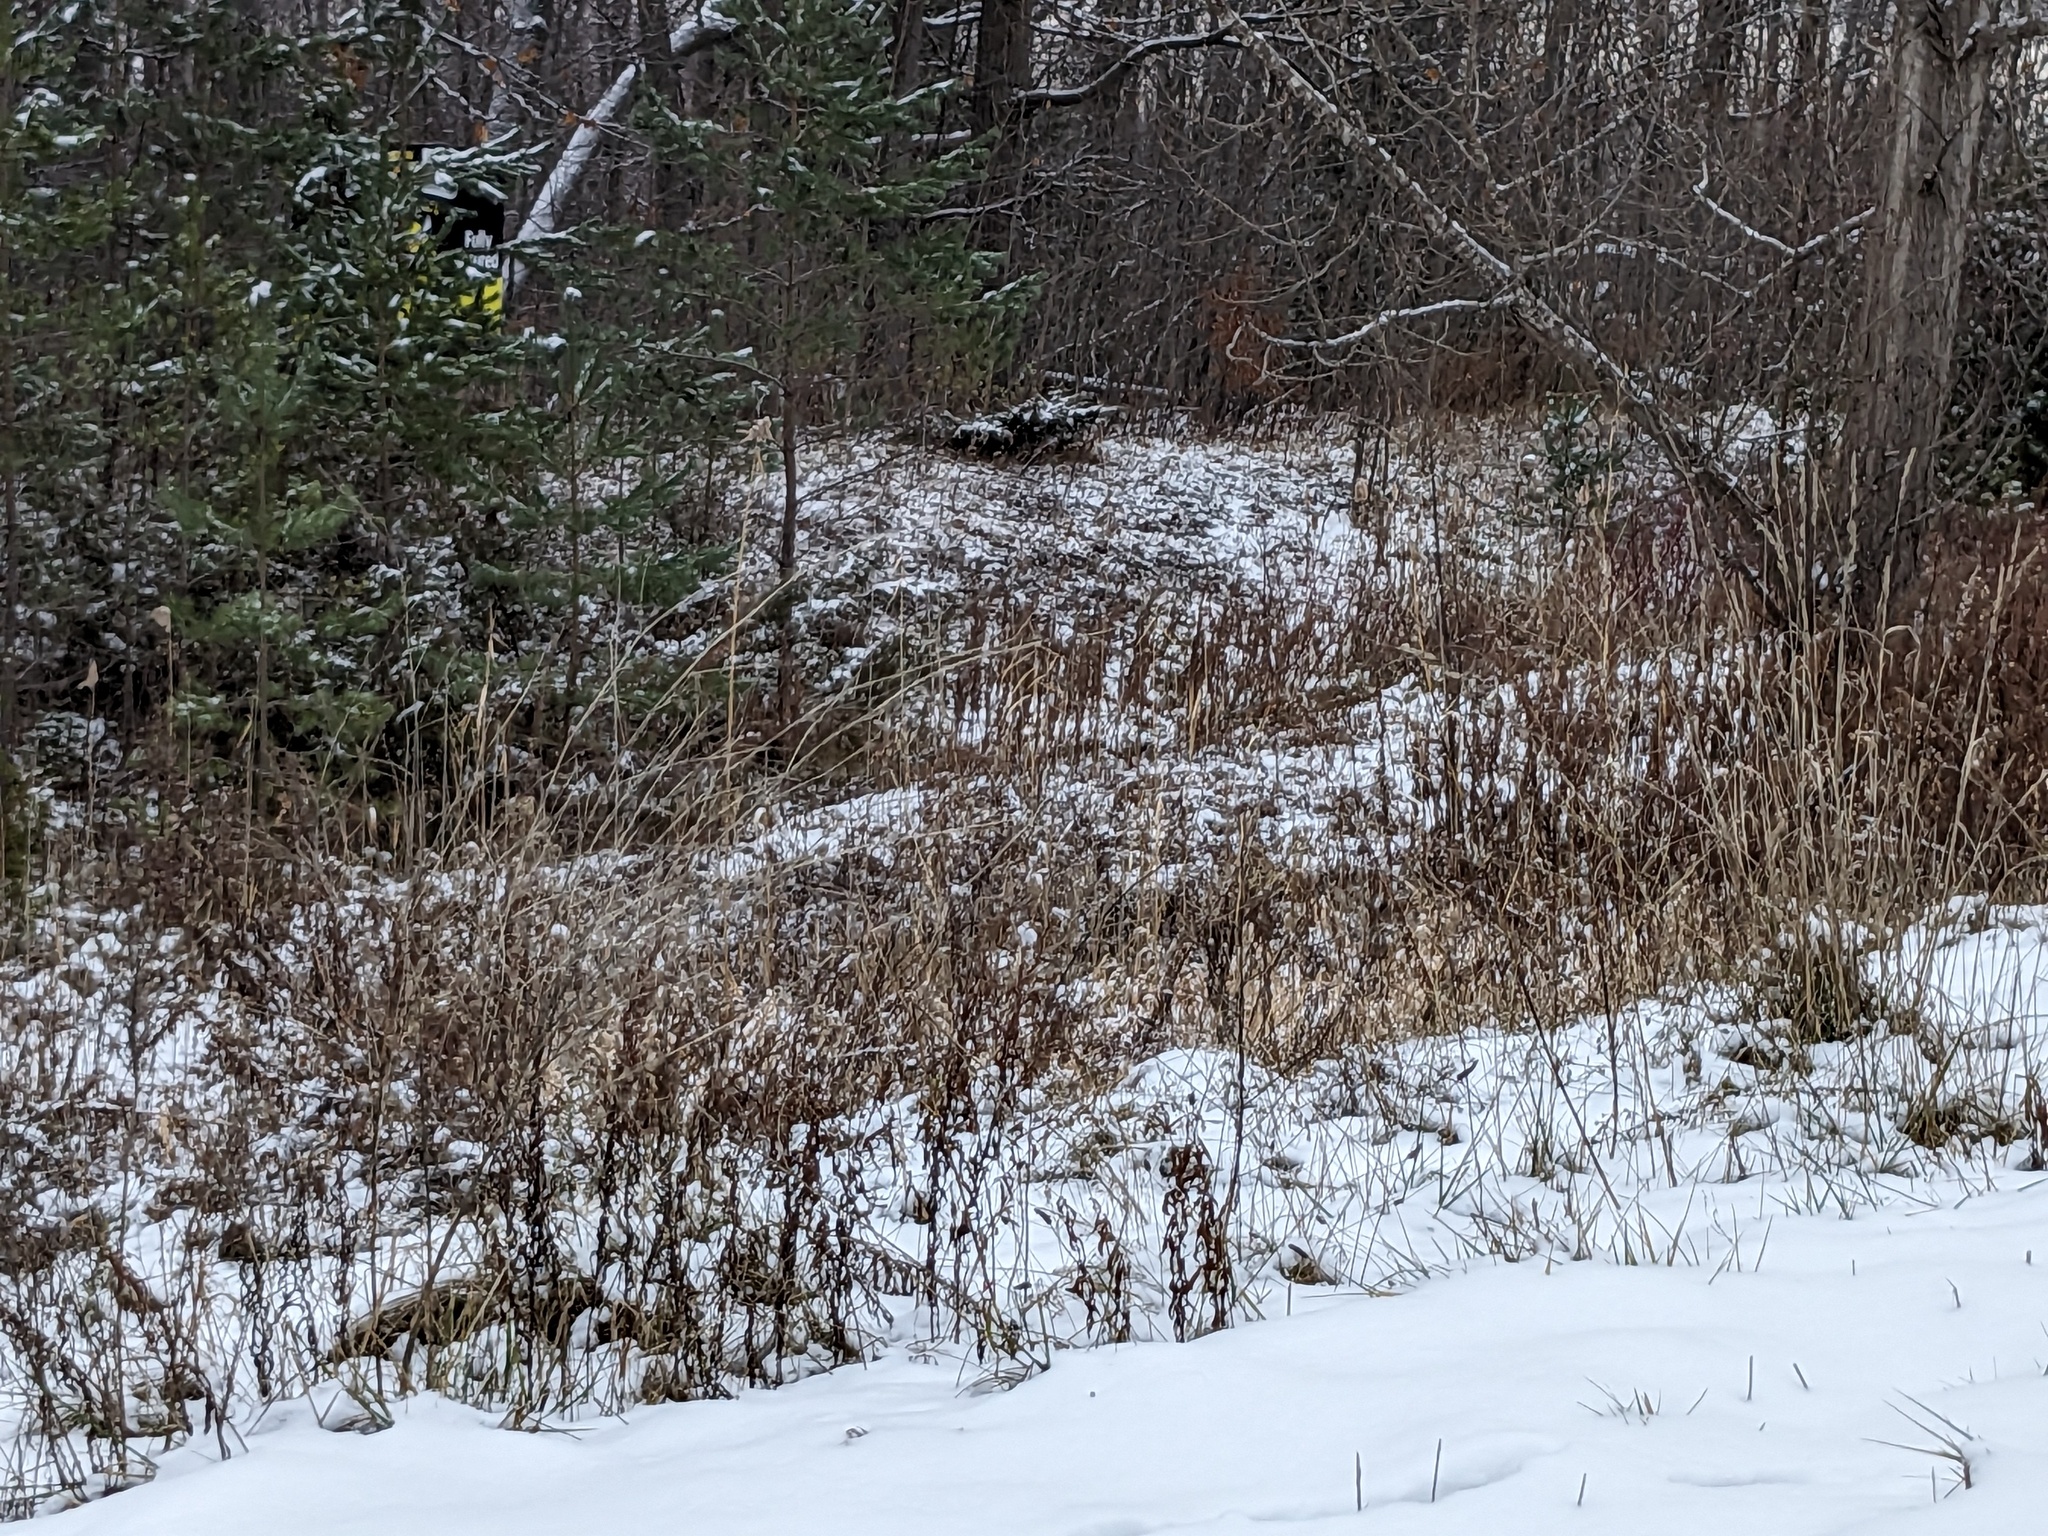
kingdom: Plantae
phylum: Tracheophyta
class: Liliopsida
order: Poales
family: Poaceae
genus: Phragmites
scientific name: Phragmites australis
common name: Common reed
